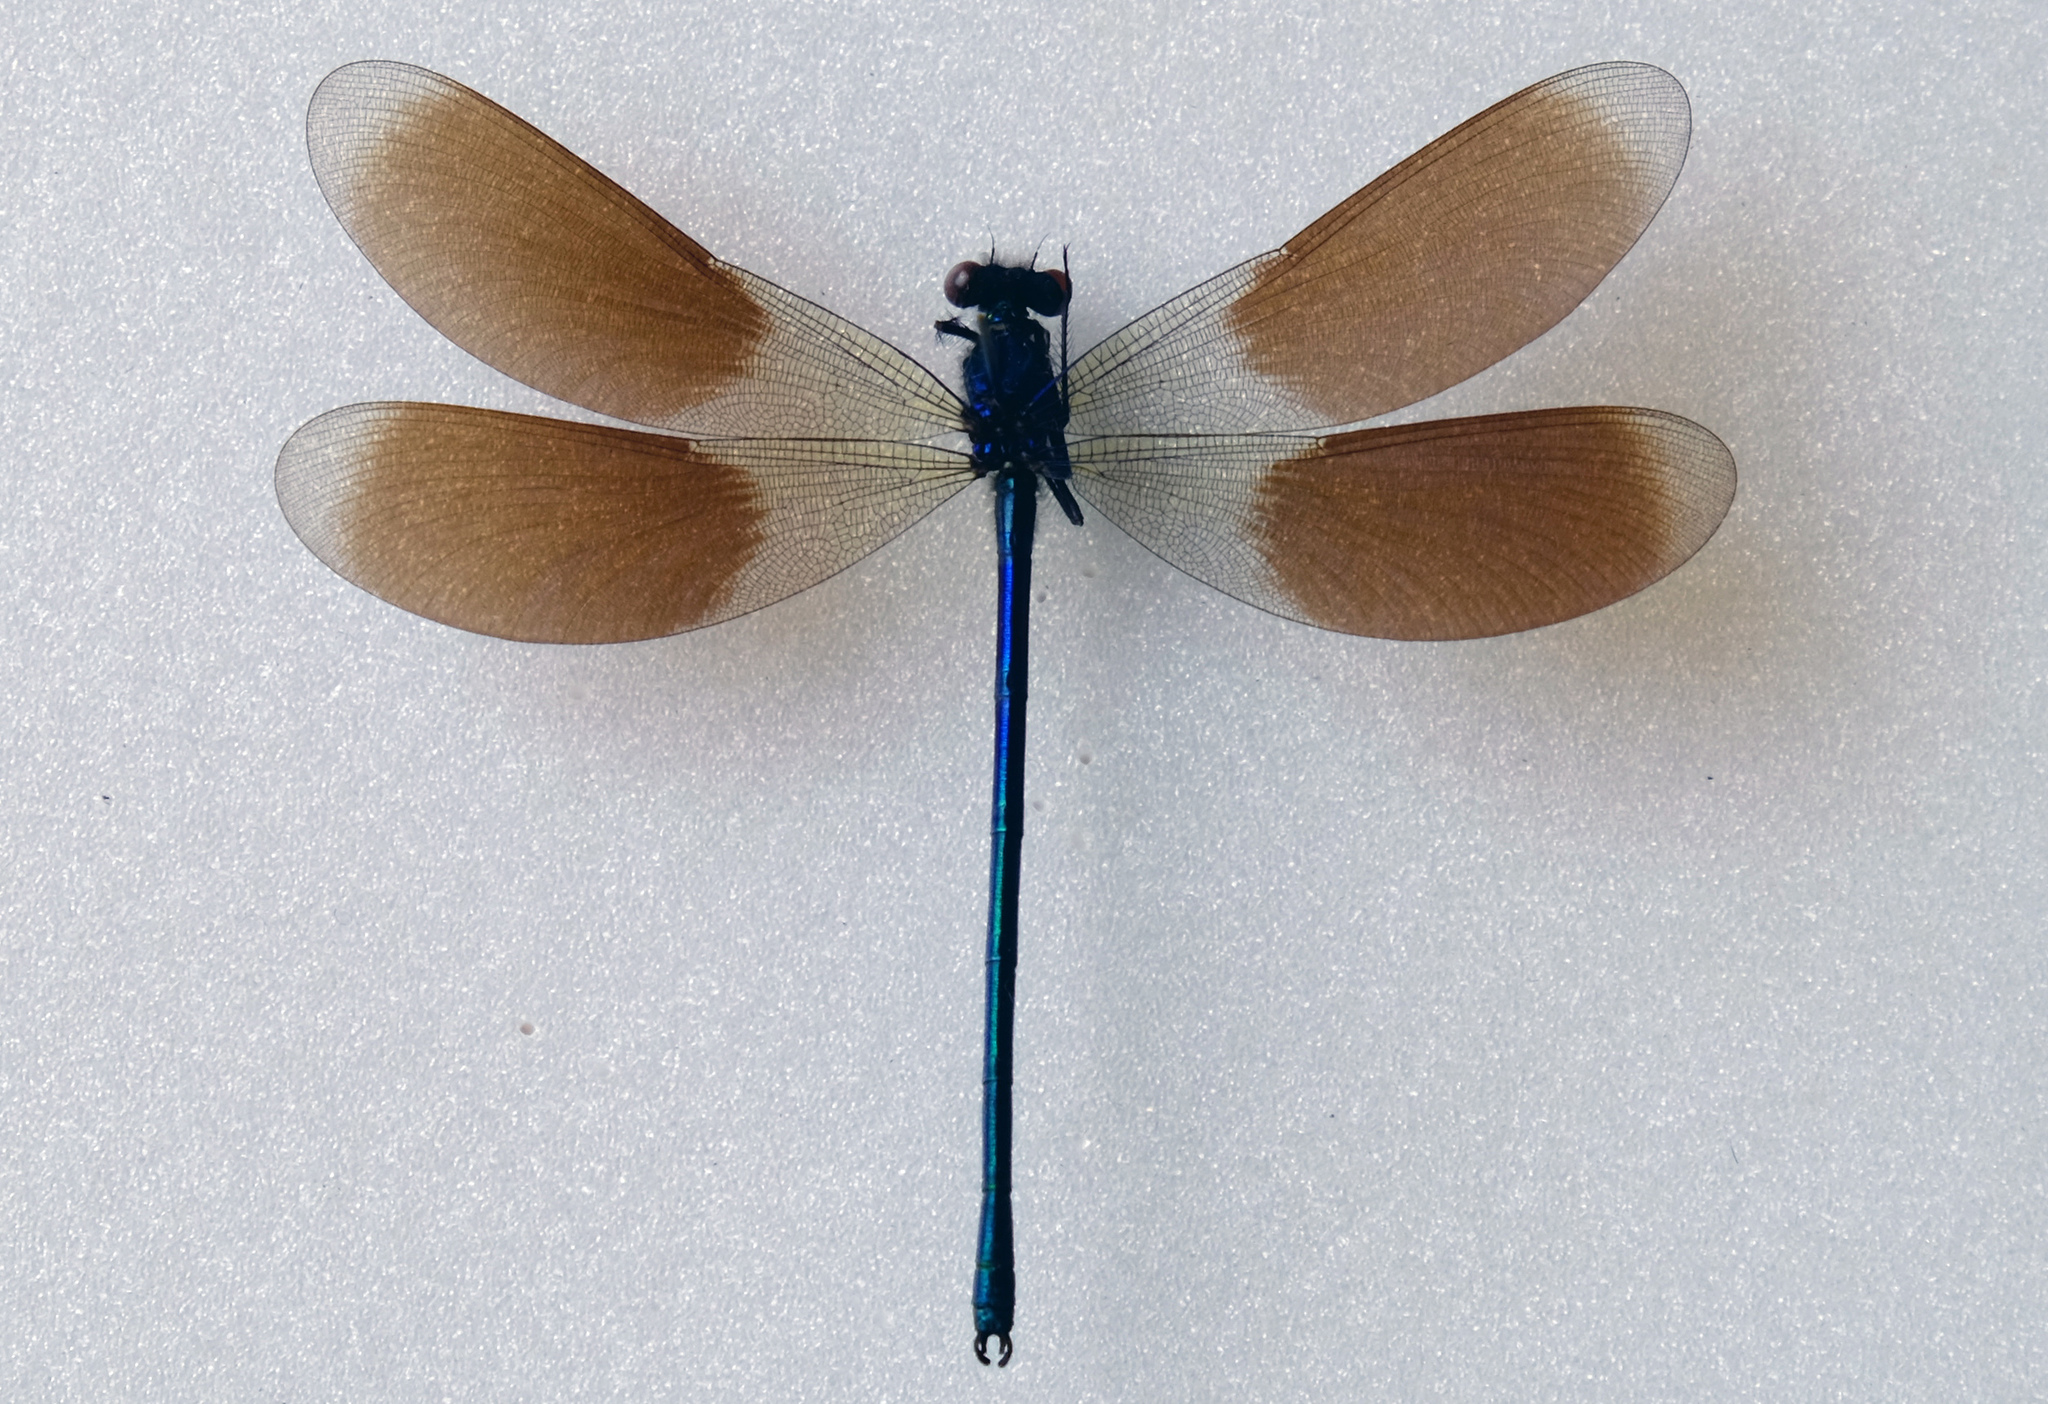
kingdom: Animalia
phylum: Arthropoda
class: Insecta
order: Odonata
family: Calopterygidae
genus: Calopteryx
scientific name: Calopteryx splendens
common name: Banded demoiselle
